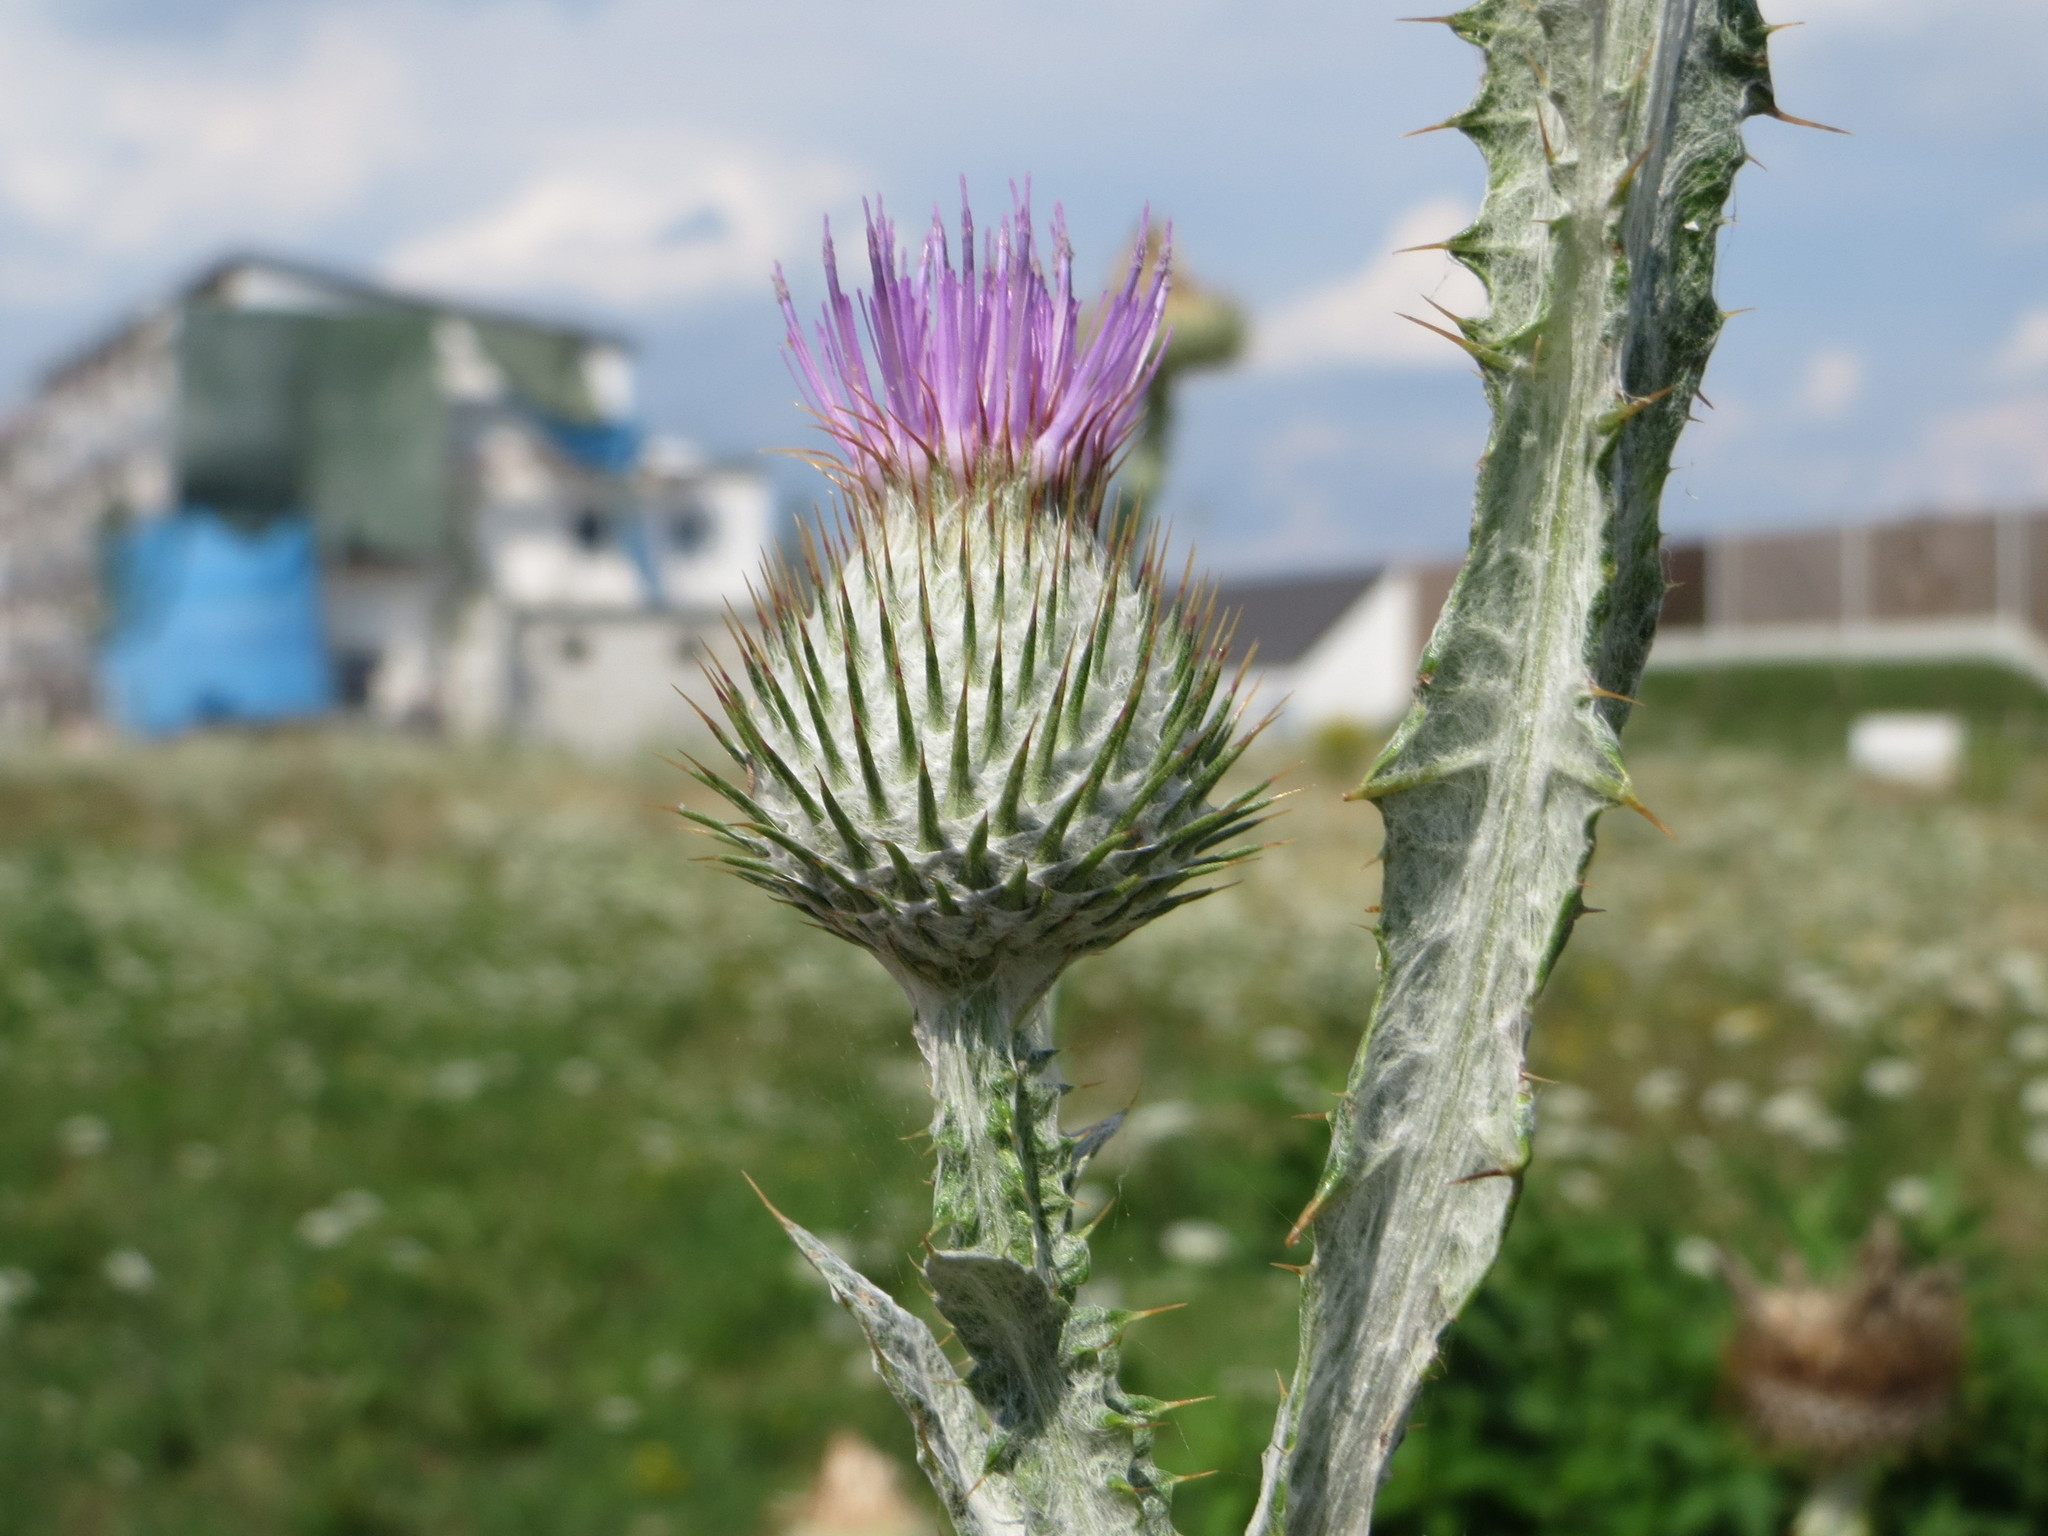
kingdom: Plantae
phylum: Tracheophyta
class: Magnoliopsida
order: Asterales
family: Asteraceae
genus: Onopordum
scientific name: Onopordum acanthium
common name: Scotch thistle
